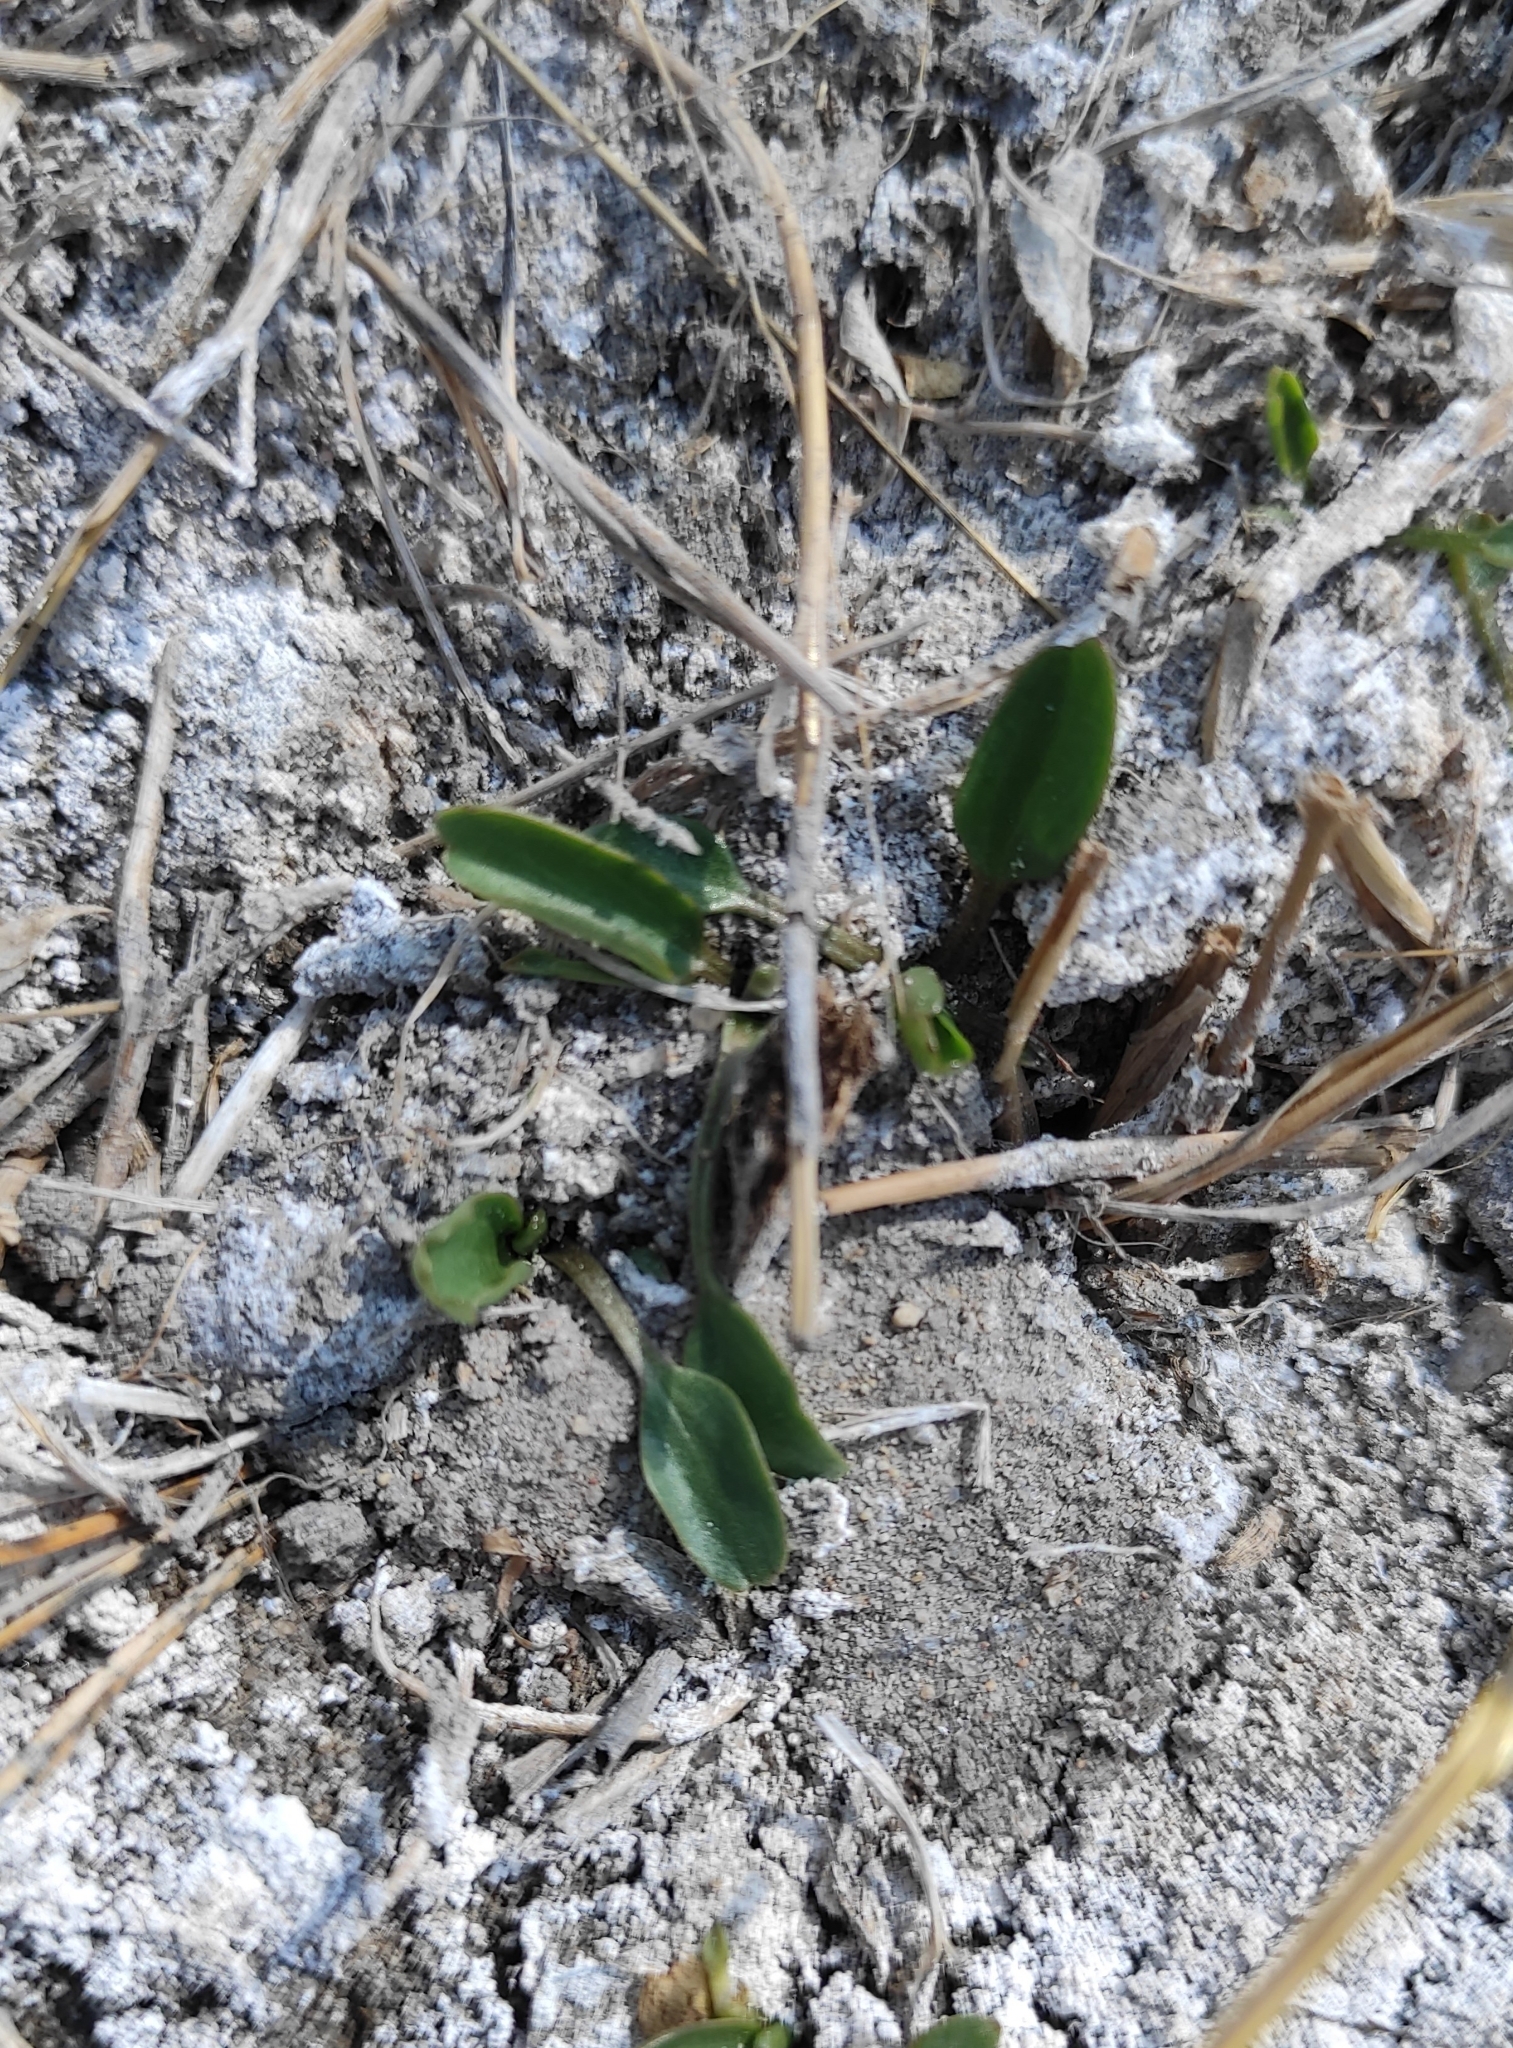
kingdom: Plantae
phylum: Tracheophyta
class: Magnoliopsida
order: Ranunculales
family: Ranunculaceae
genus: Halerpestes
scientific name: Halerpestes ruthenica
